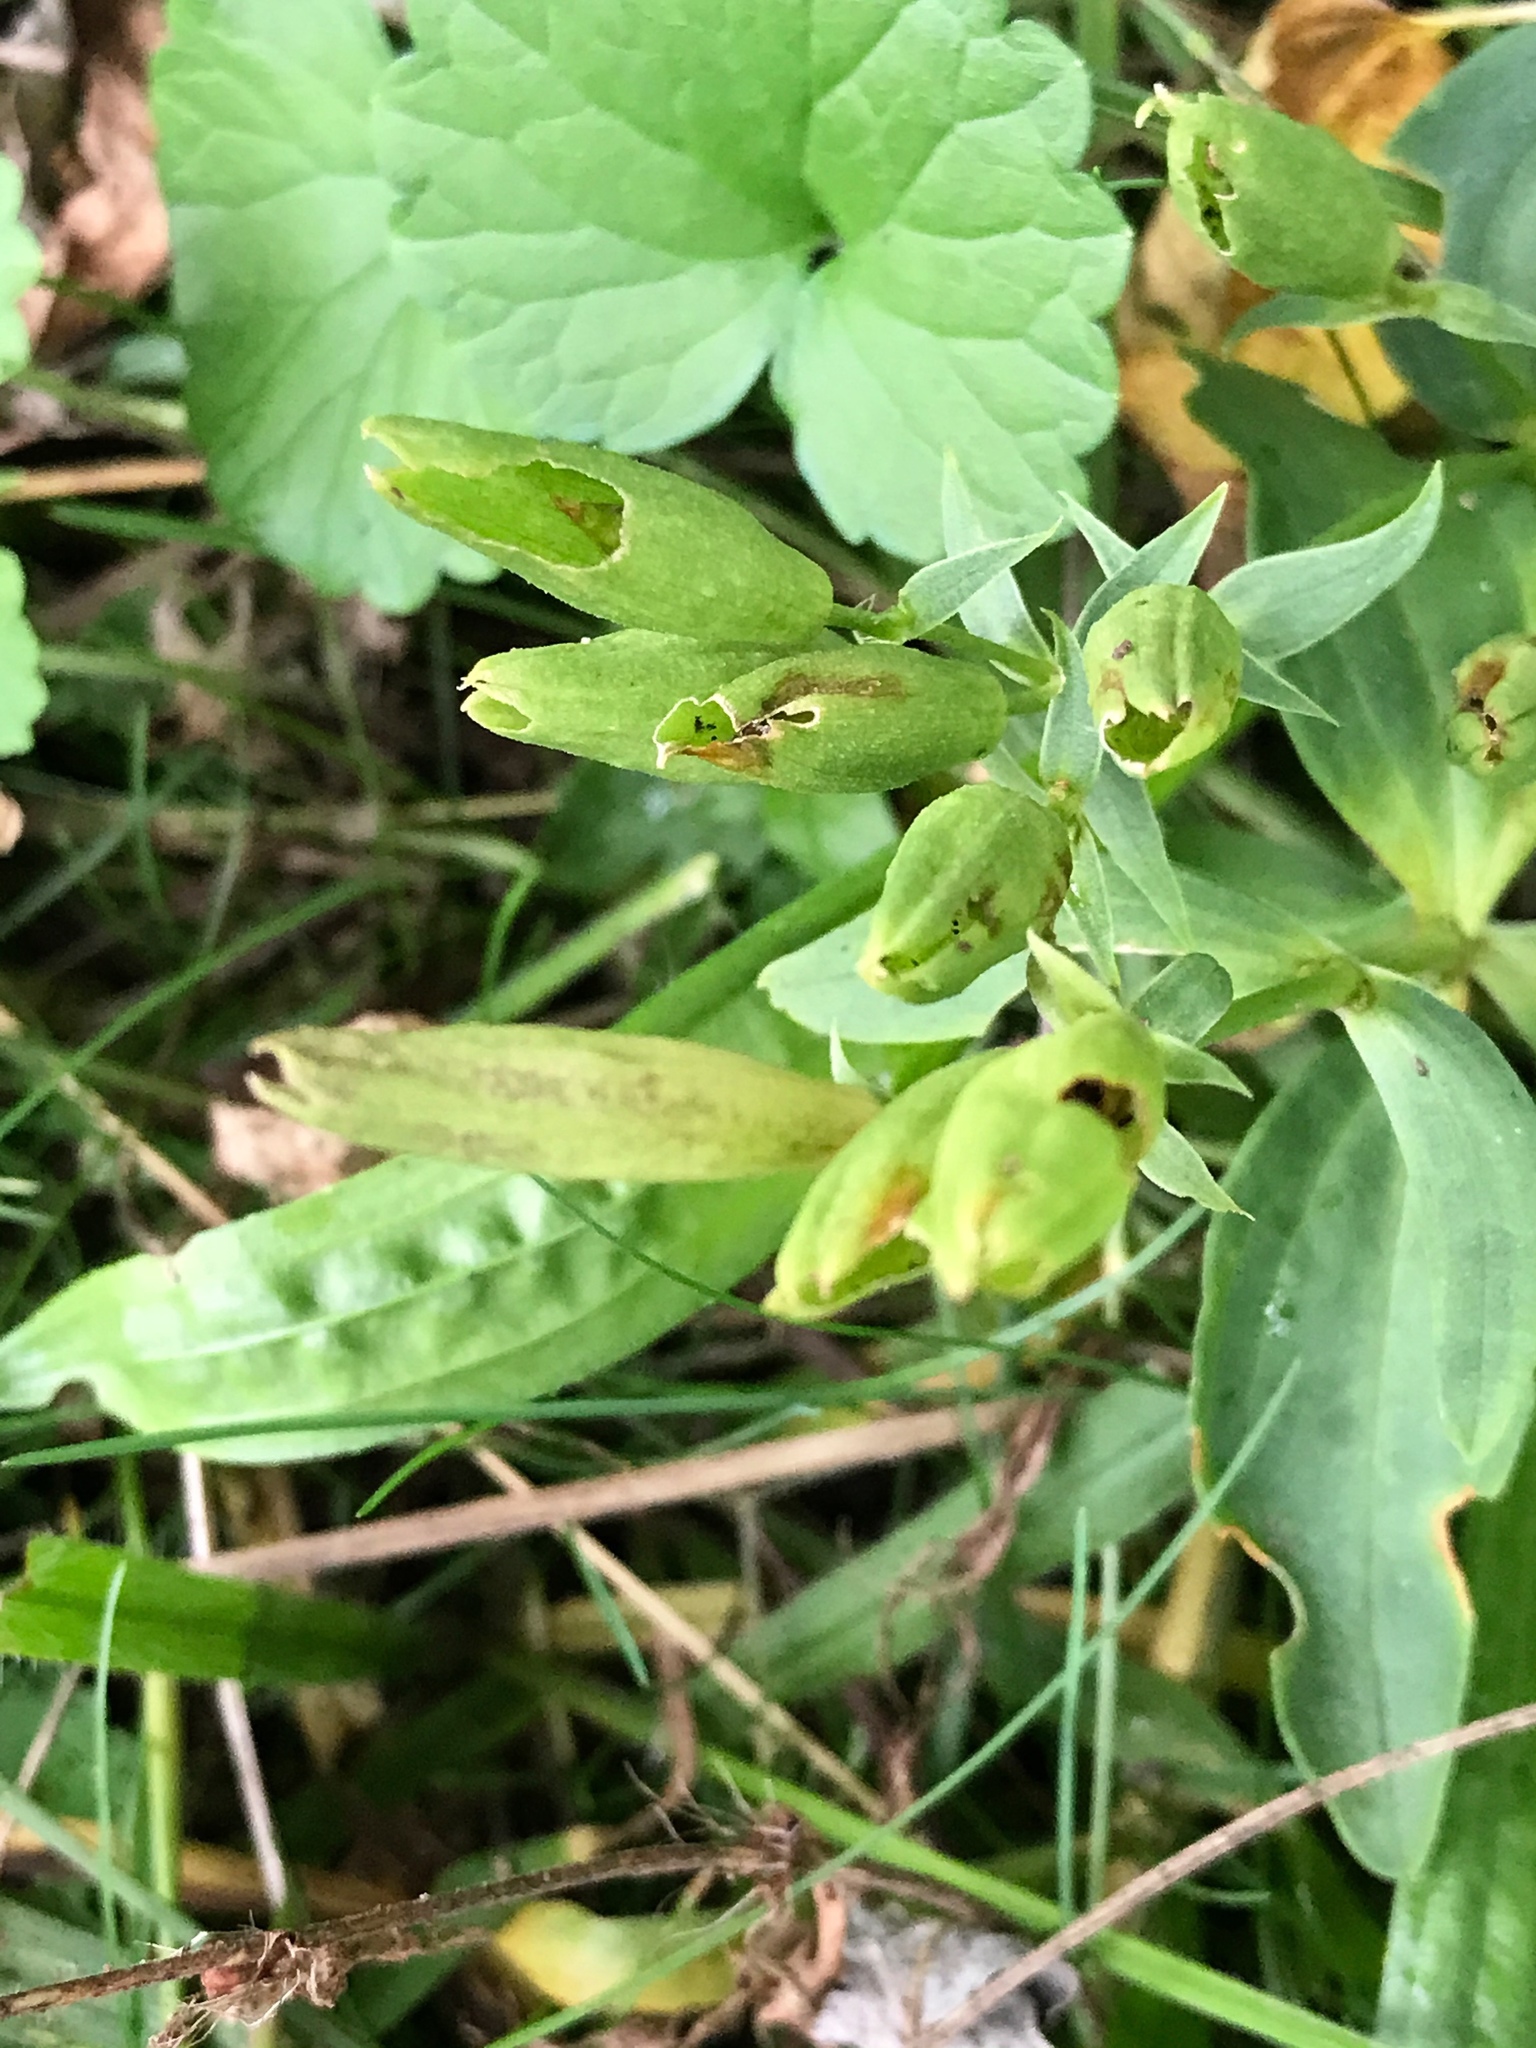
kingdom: Plantae
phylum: Tracheophyta
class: Magnoliopsida
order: Caryophyllales
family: Caryophyllaceae
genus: Saponaria
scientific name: Saponaria officinalis
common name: Soapwort
